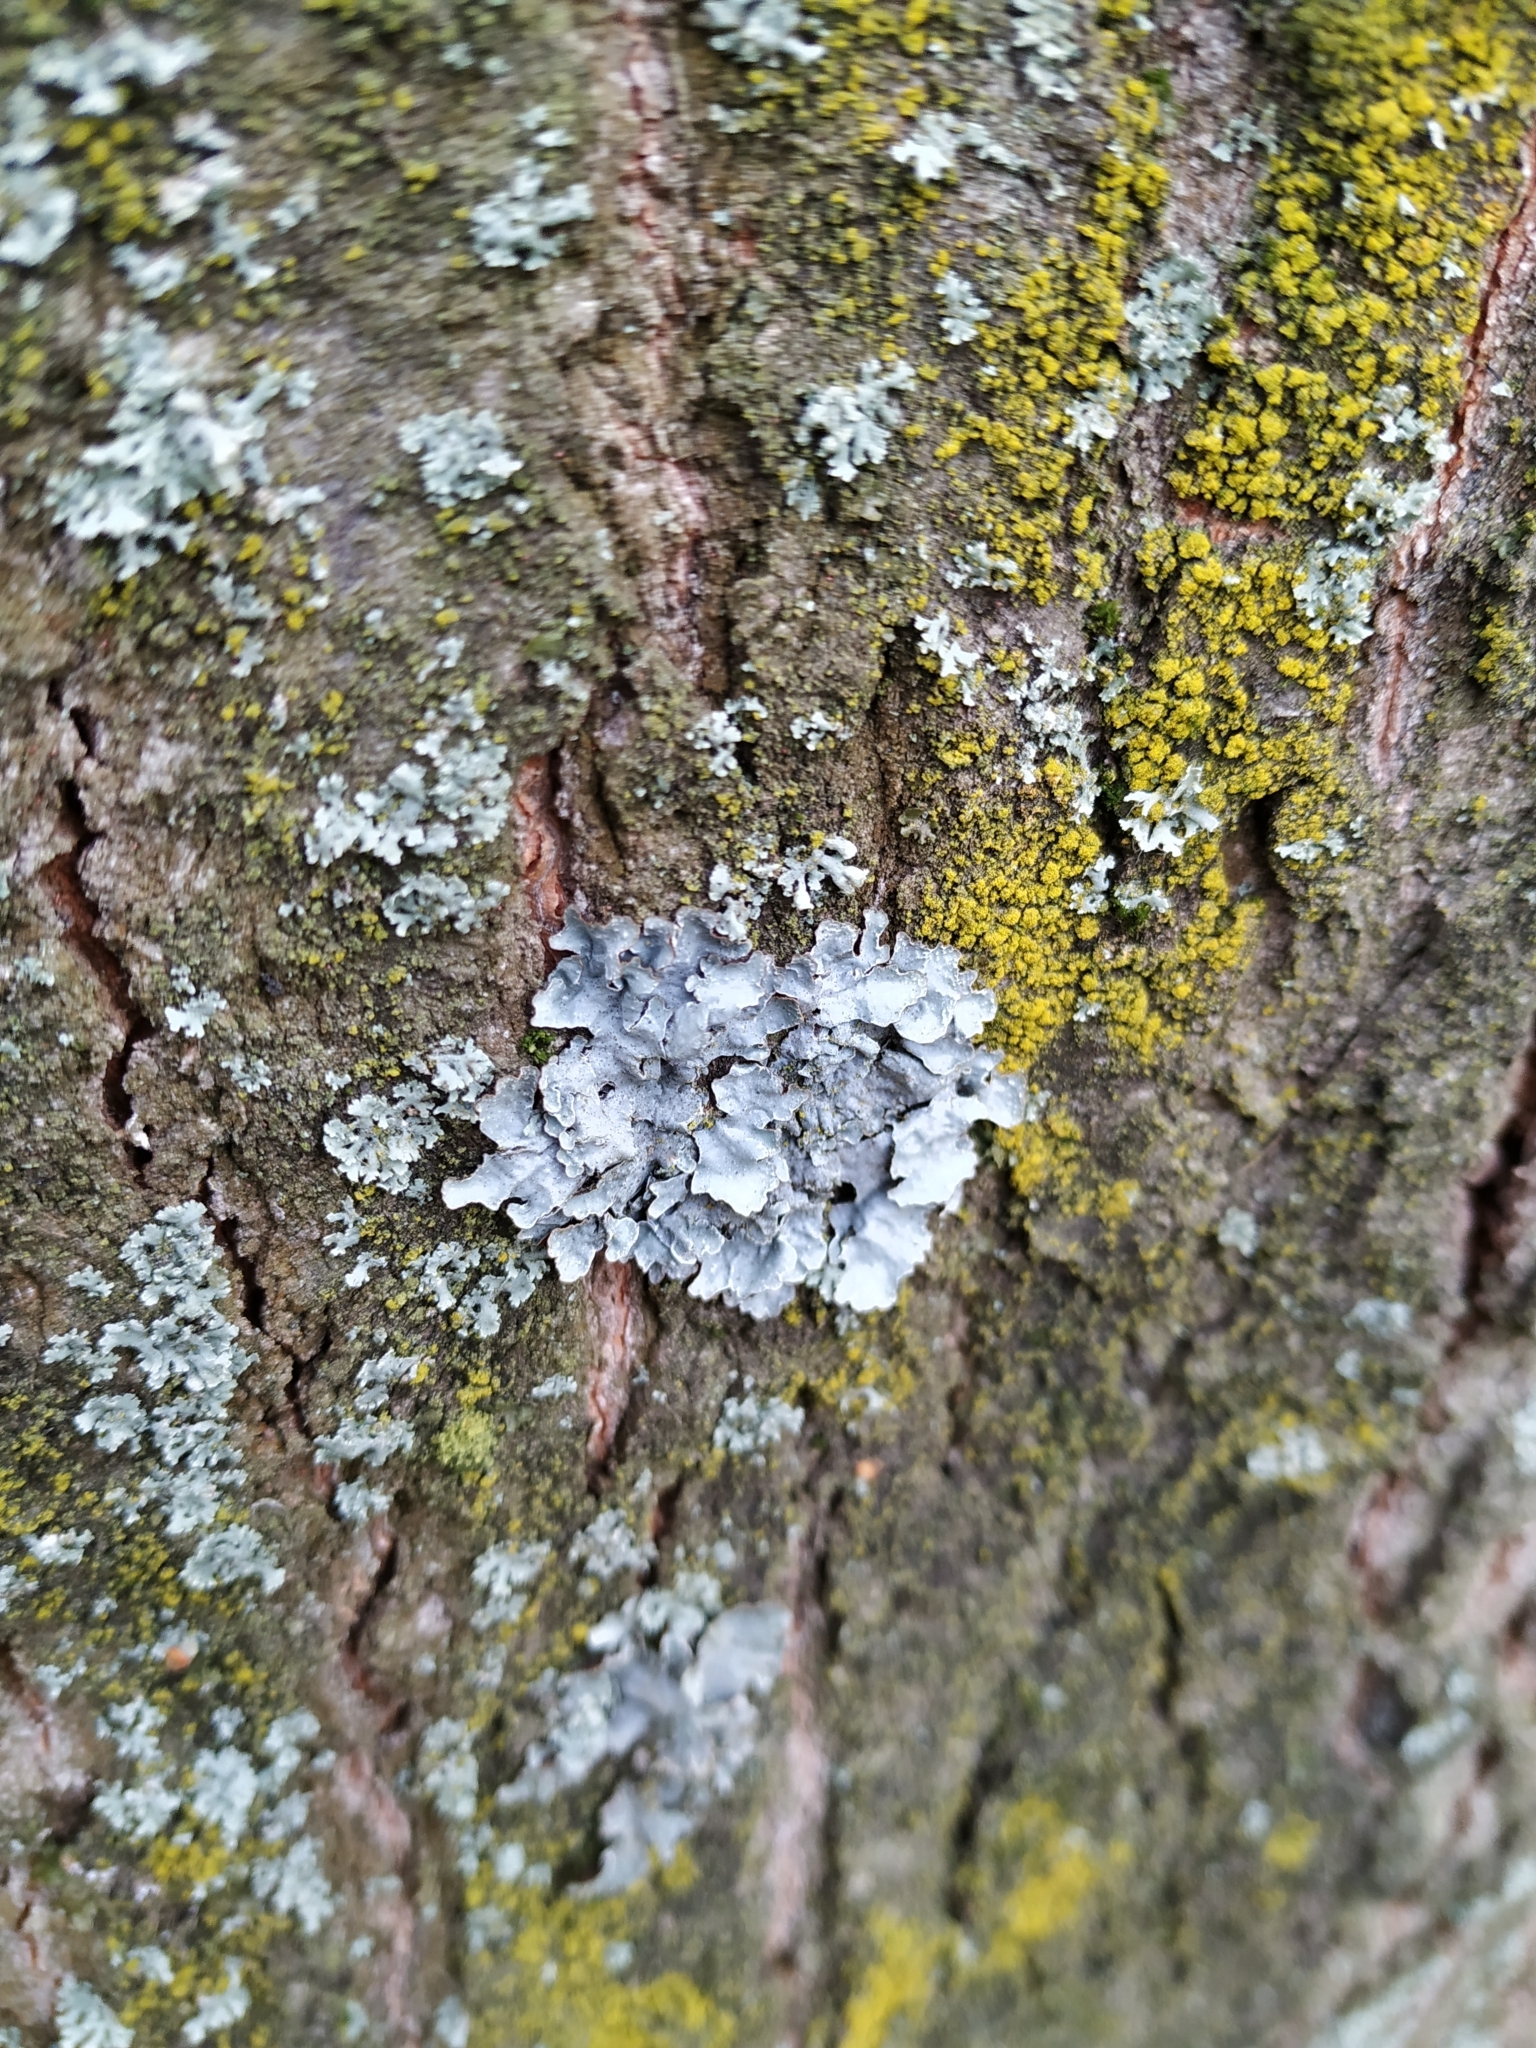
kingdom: Fungi
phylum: Ascomycota
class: Lecanoromycetes
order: Lecanorales
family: Parmeliaceae
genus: Parmelia
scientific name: Parmelia sulcata
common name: Netted shield lichen
